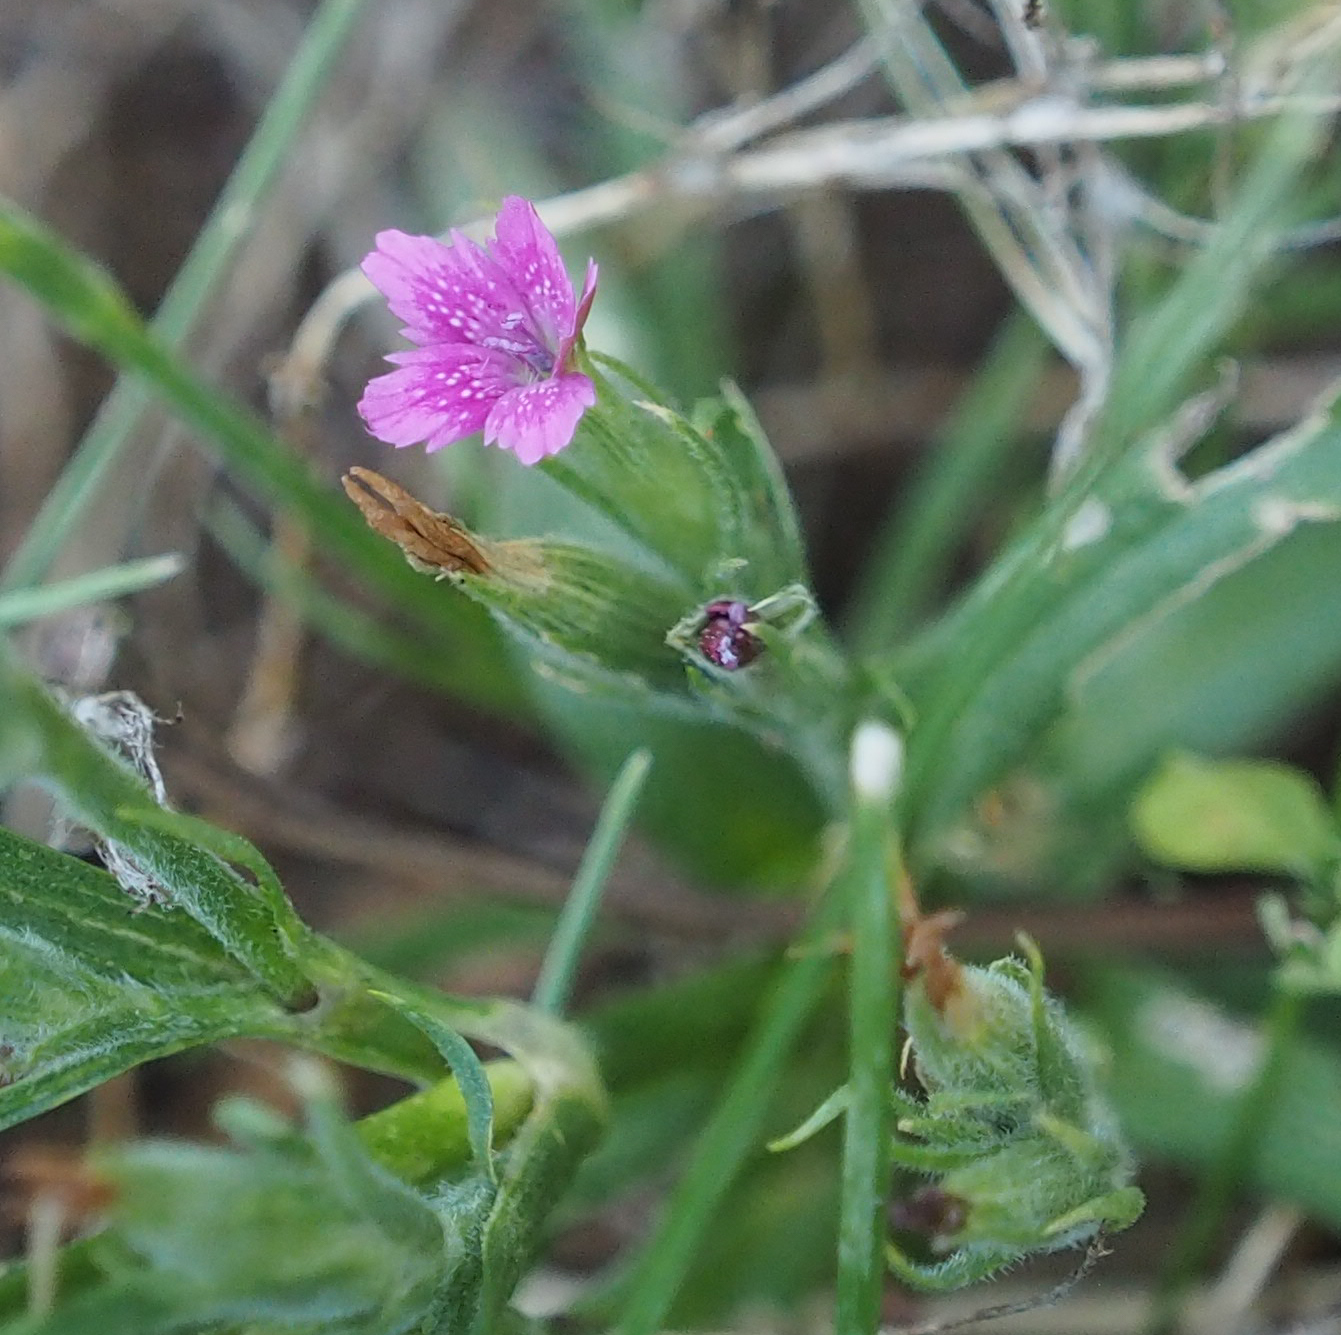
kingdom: Plantae
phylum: Tracheophyta
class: Magnoliopsida
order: Caryophyllales
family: Caryophyllaceae
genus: Dianthus
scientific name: Dianthus armeria
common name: Deptford pink
